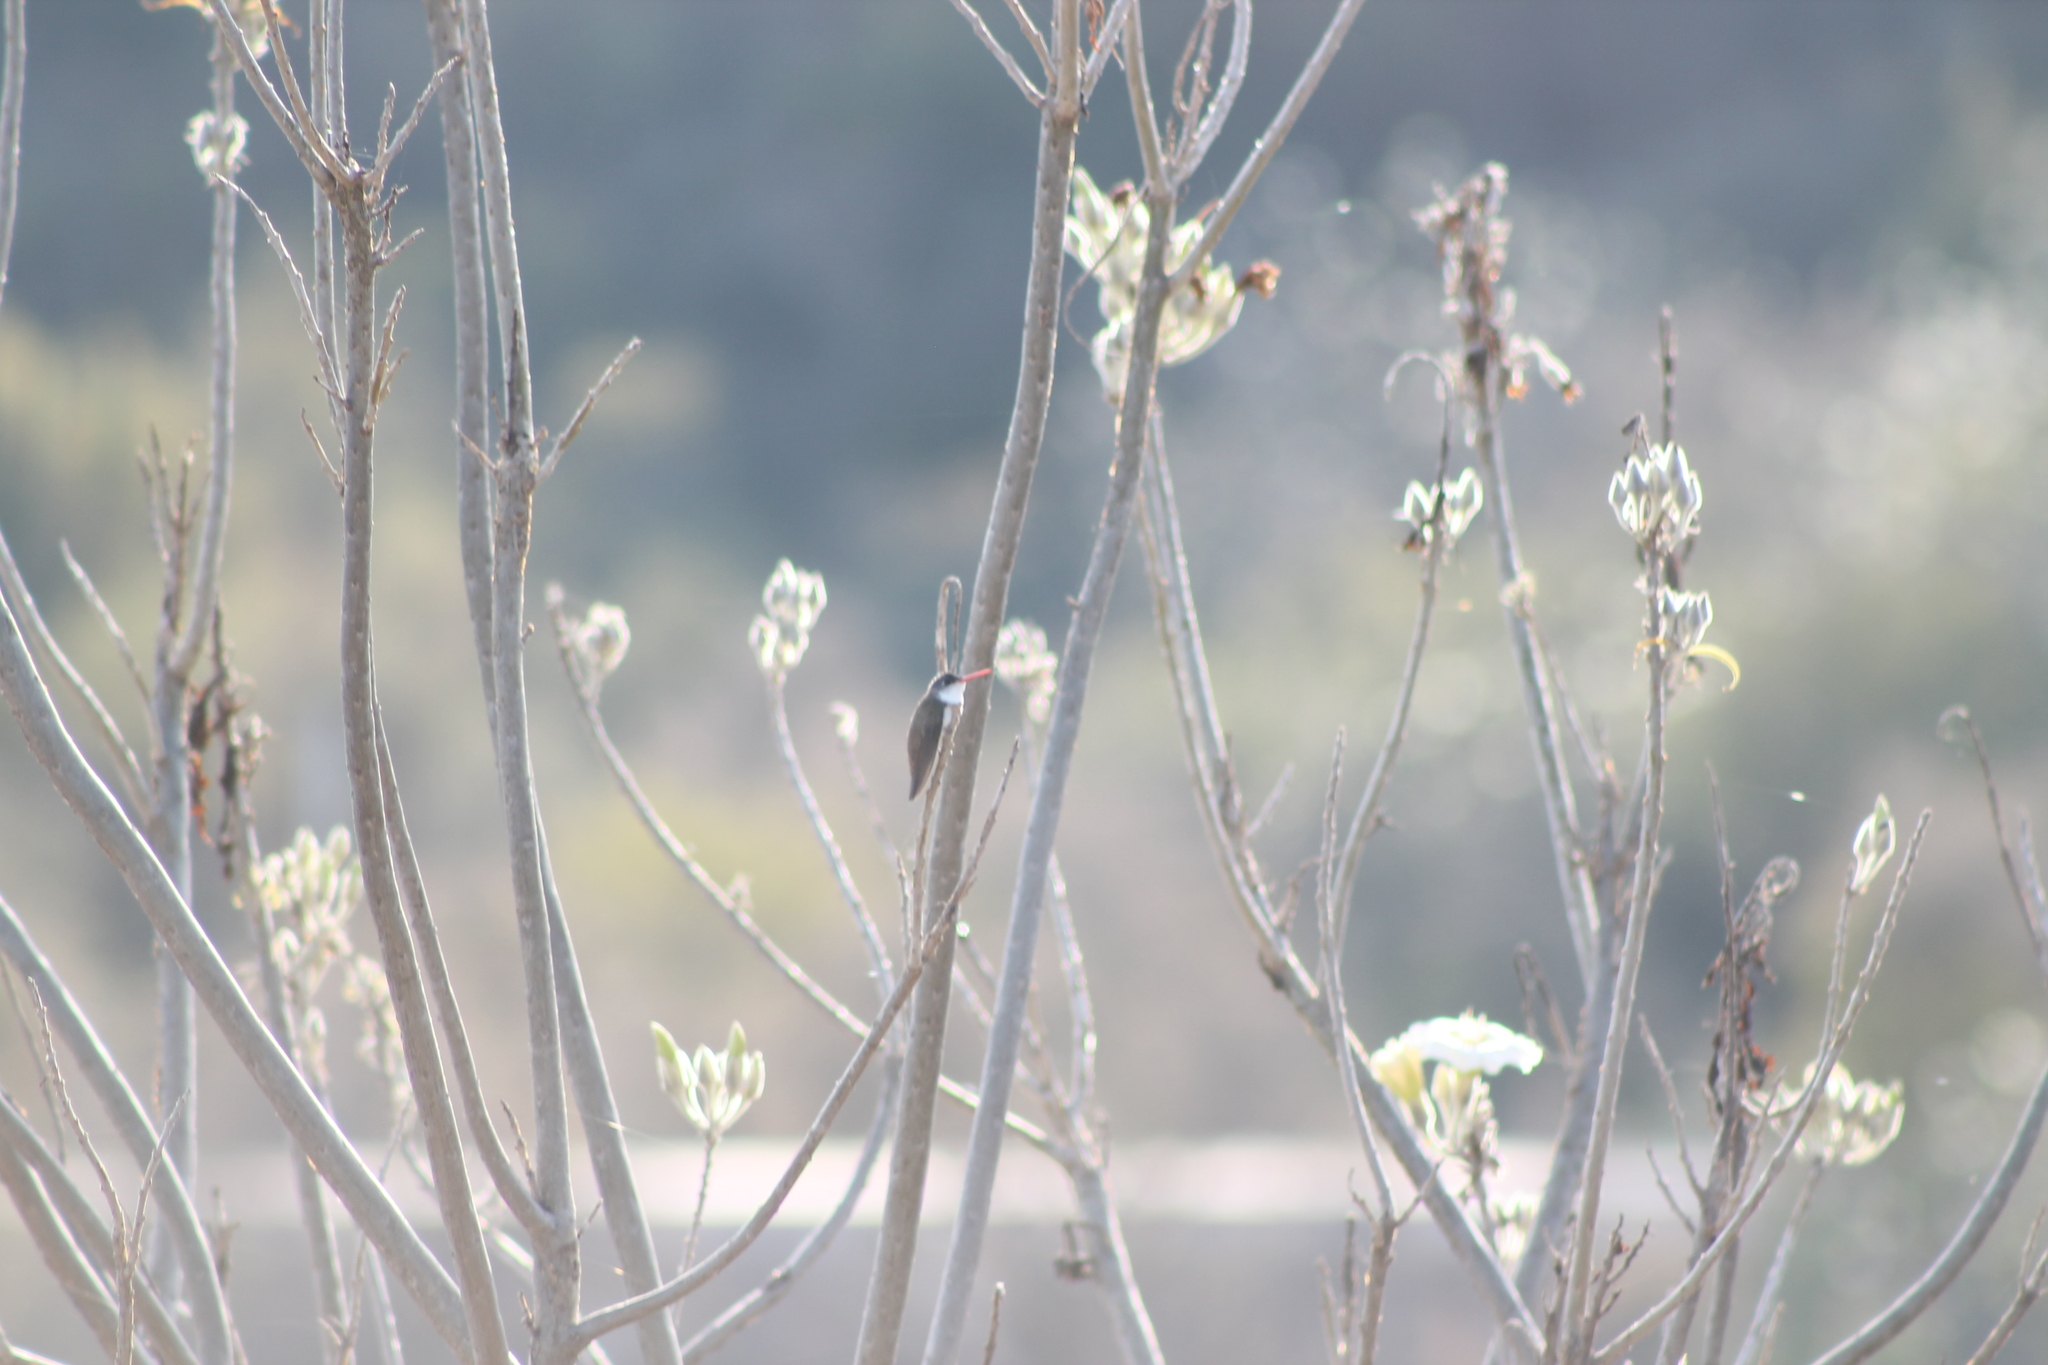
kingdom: Animalia
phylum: Chordata
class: Aves
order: Apodiformes
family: Trochilidae
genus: Leucolia
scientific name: Leucolia violiceps
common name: Violet-crowned hummingbird
